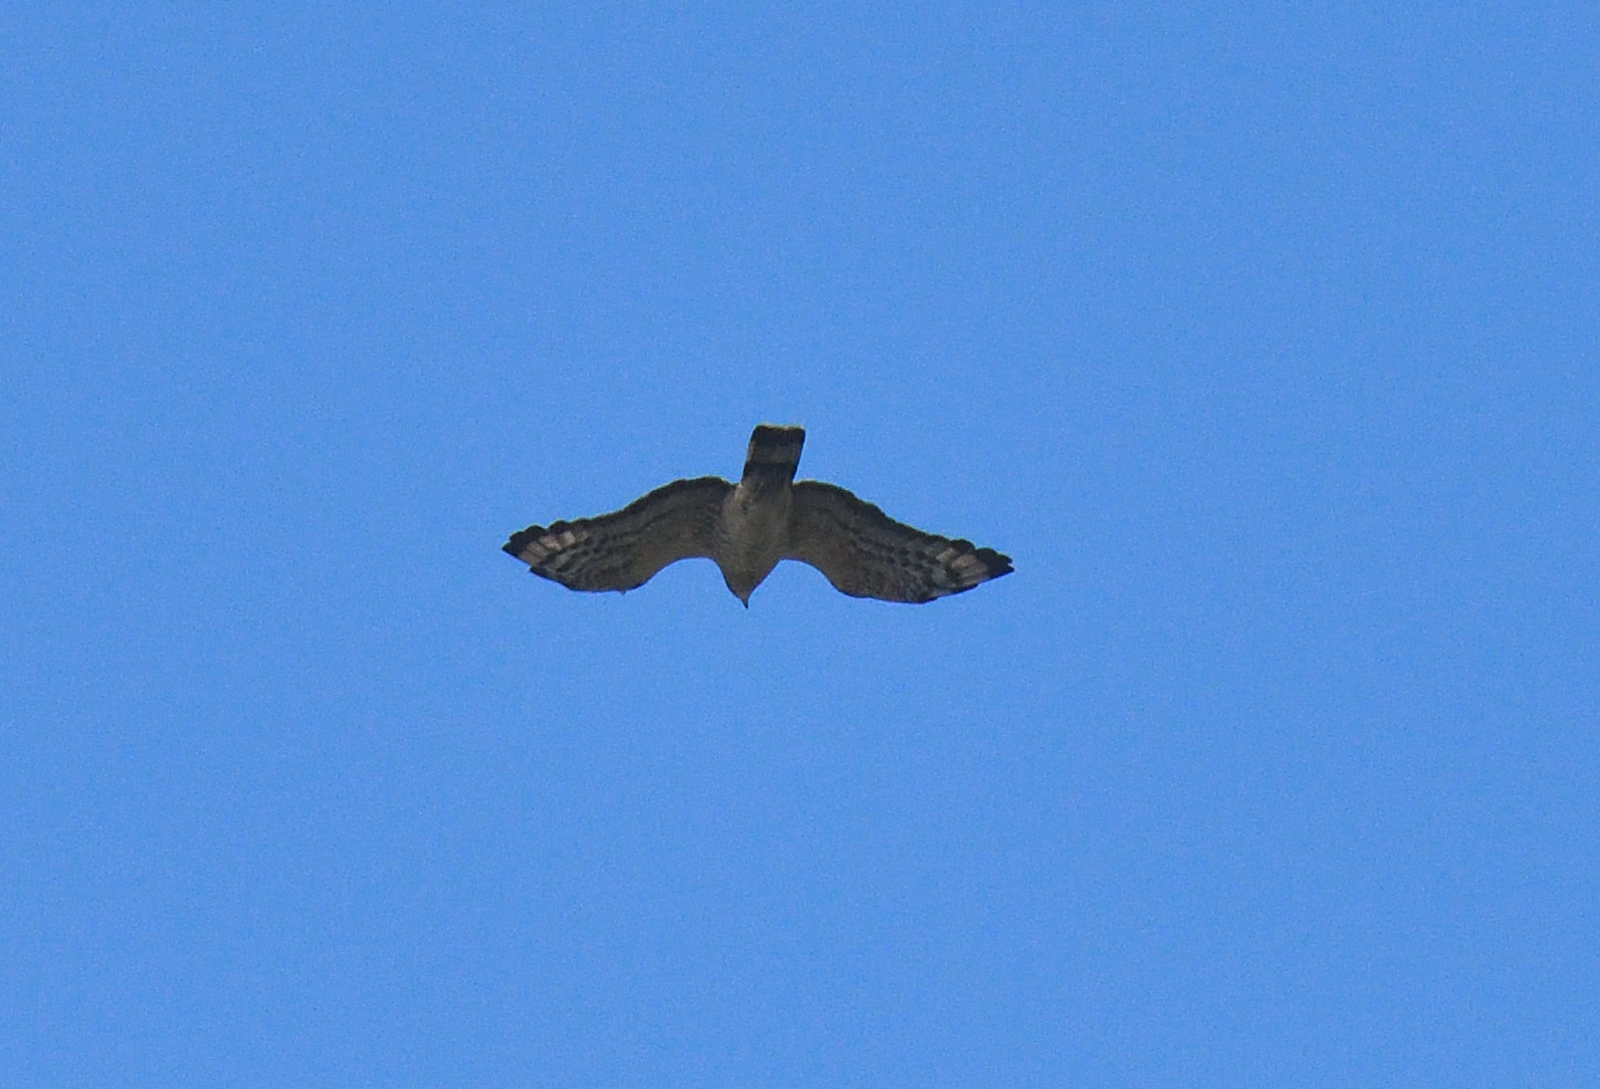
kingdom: Animalia
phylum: Chordata
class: Aves
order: Accipitriformes
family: Accipitridae
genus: Pernis
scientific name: Pernis ptilorhynchus
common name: Crested honey buzzard
